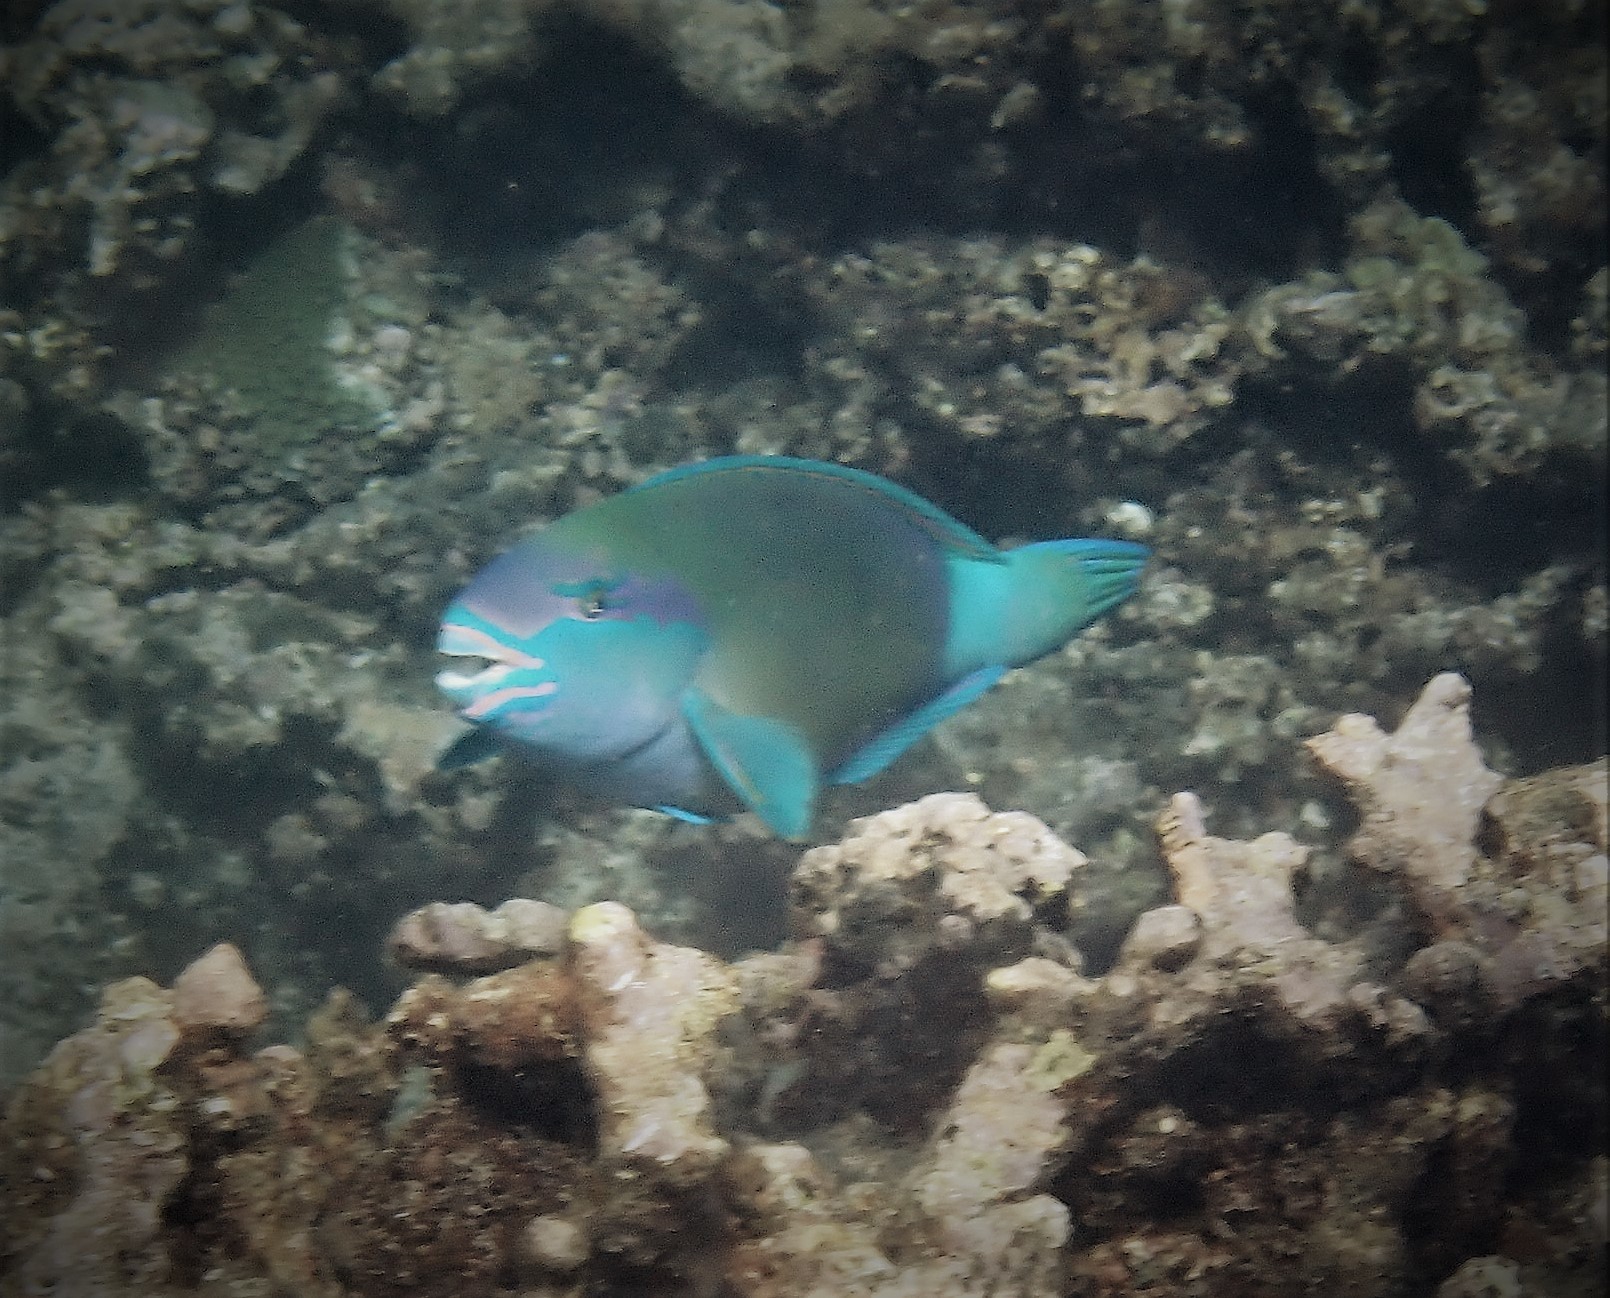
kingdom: Animalia
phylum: Chordata
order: Perciformes
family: Scaridae
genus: Chlorurus
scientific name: Chlorurus sordidus
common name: Bullethead parrotfish
